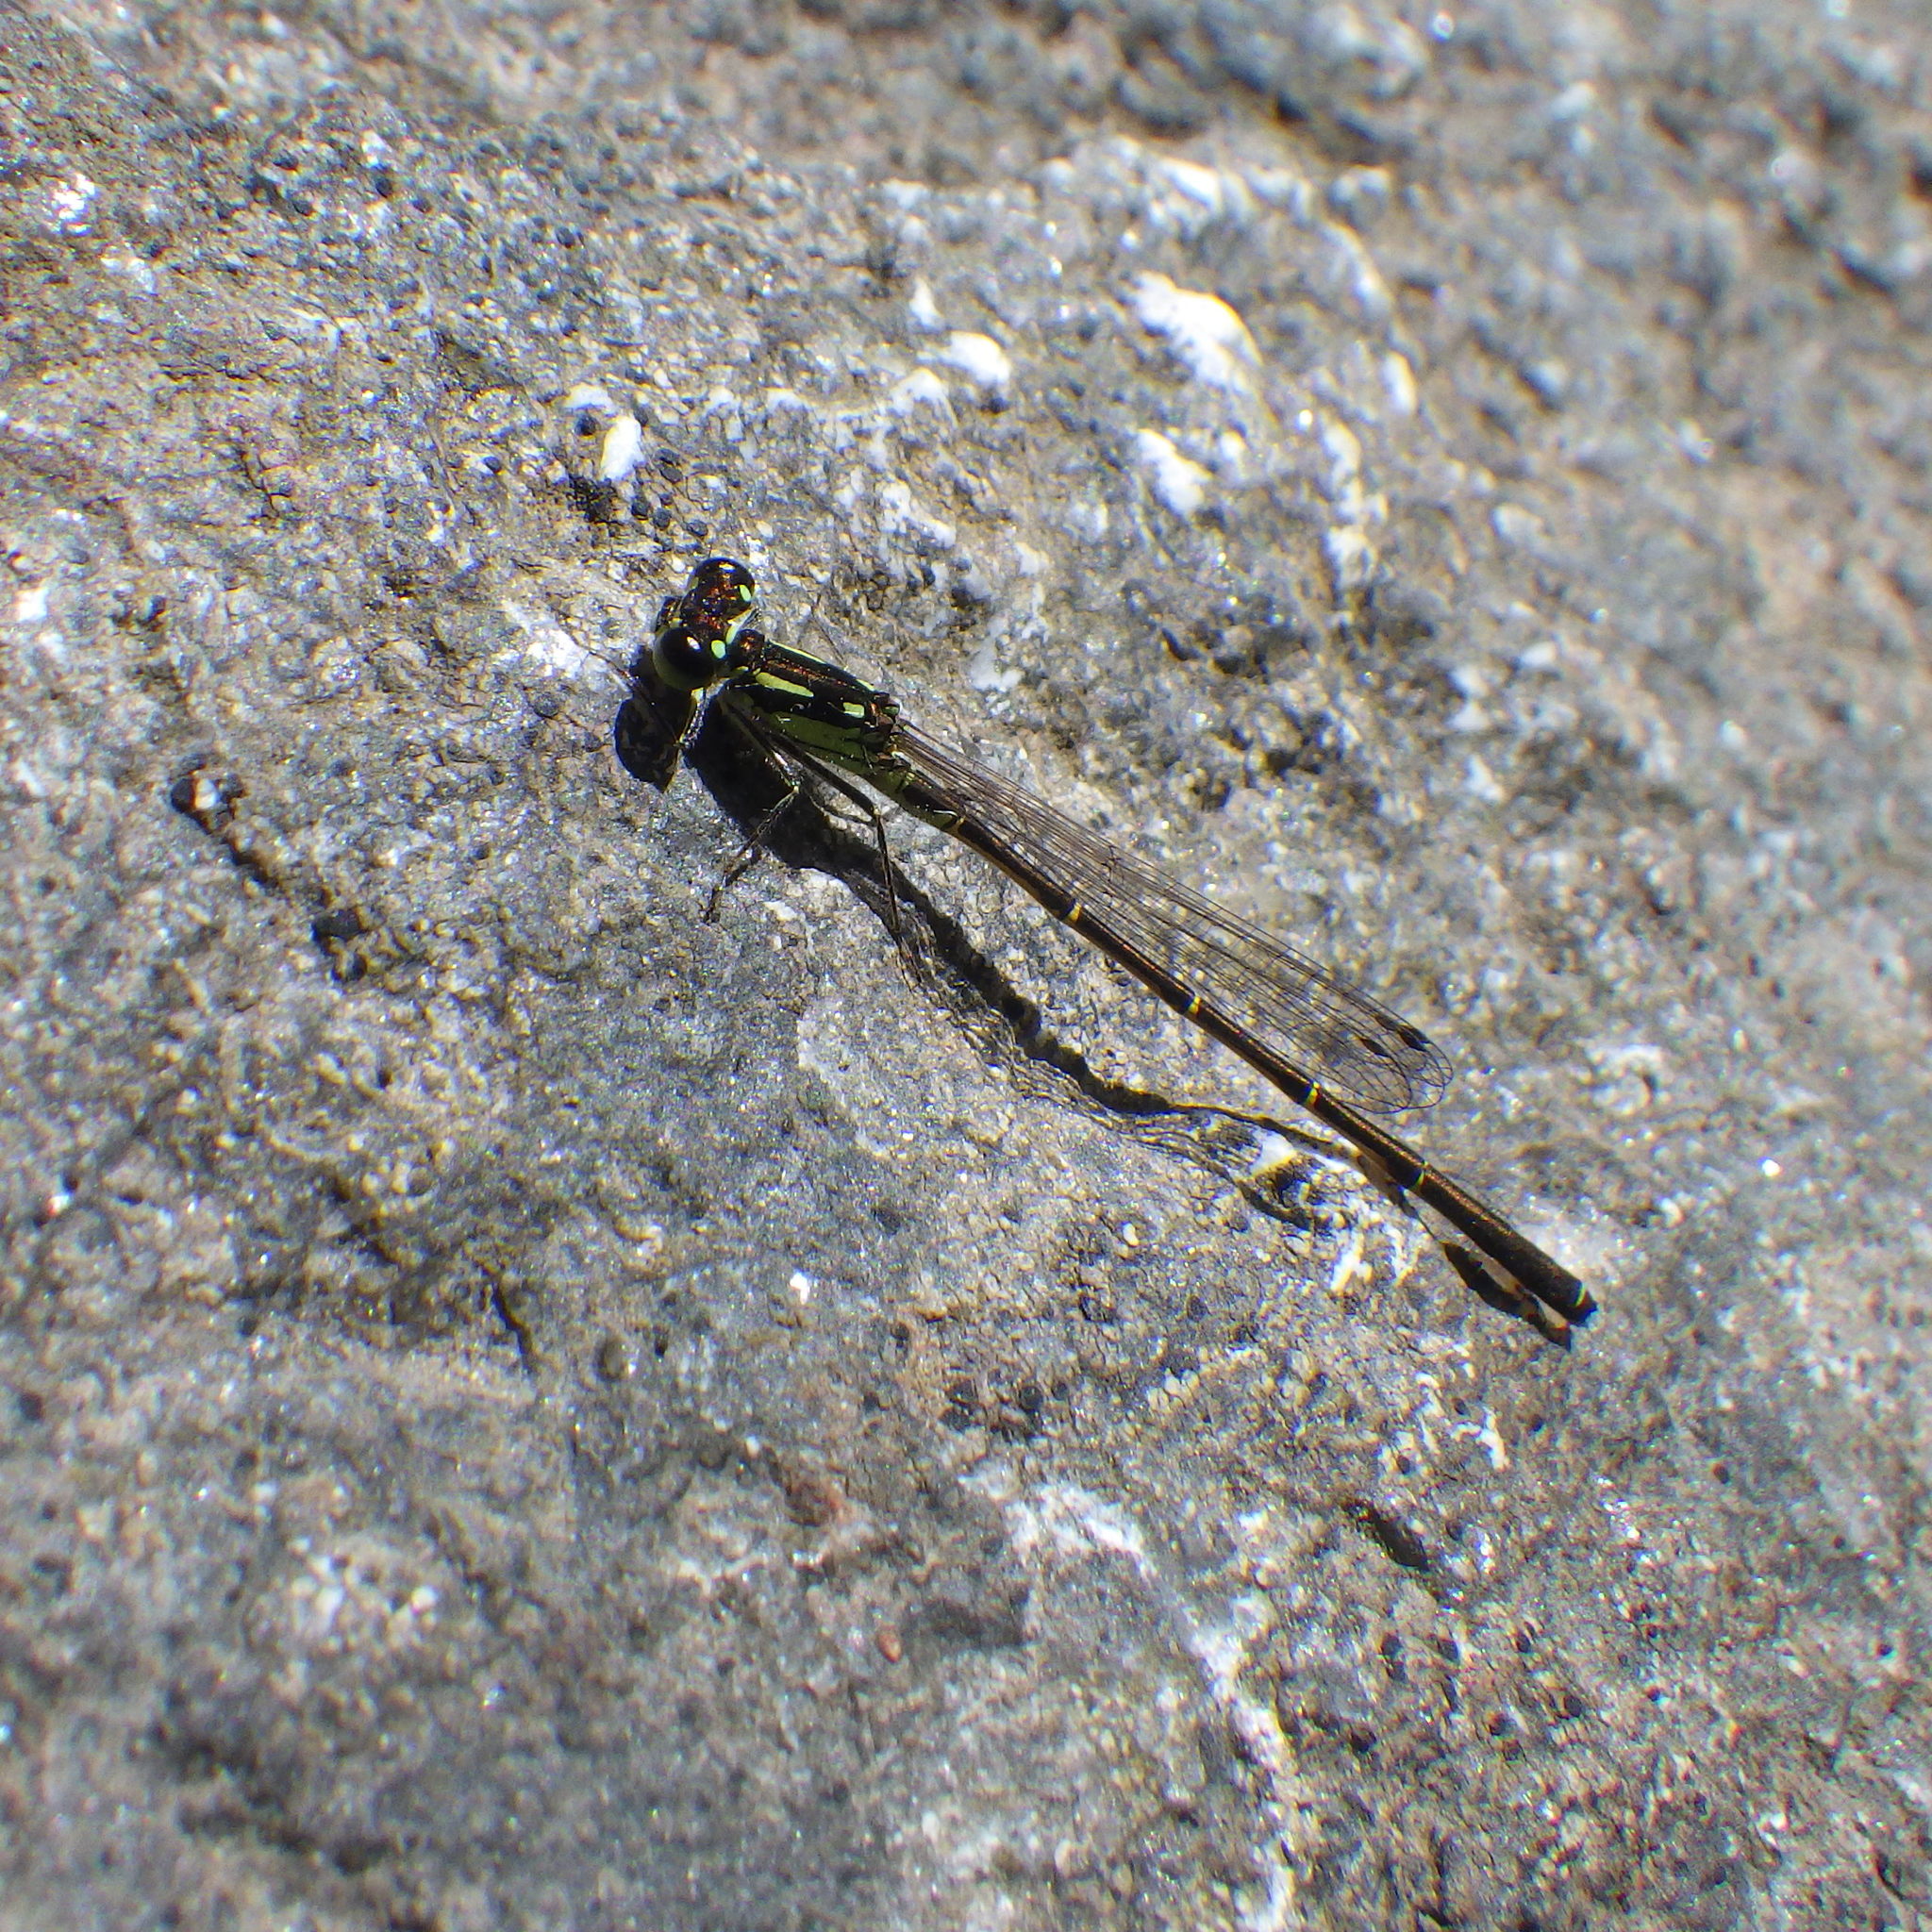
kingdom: Animalia
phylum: Arthropoda
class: Insecta
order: Odonata
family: Coenagrionidae
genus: Ischnura
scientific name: Ischnura posita
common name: Fragile forktail
